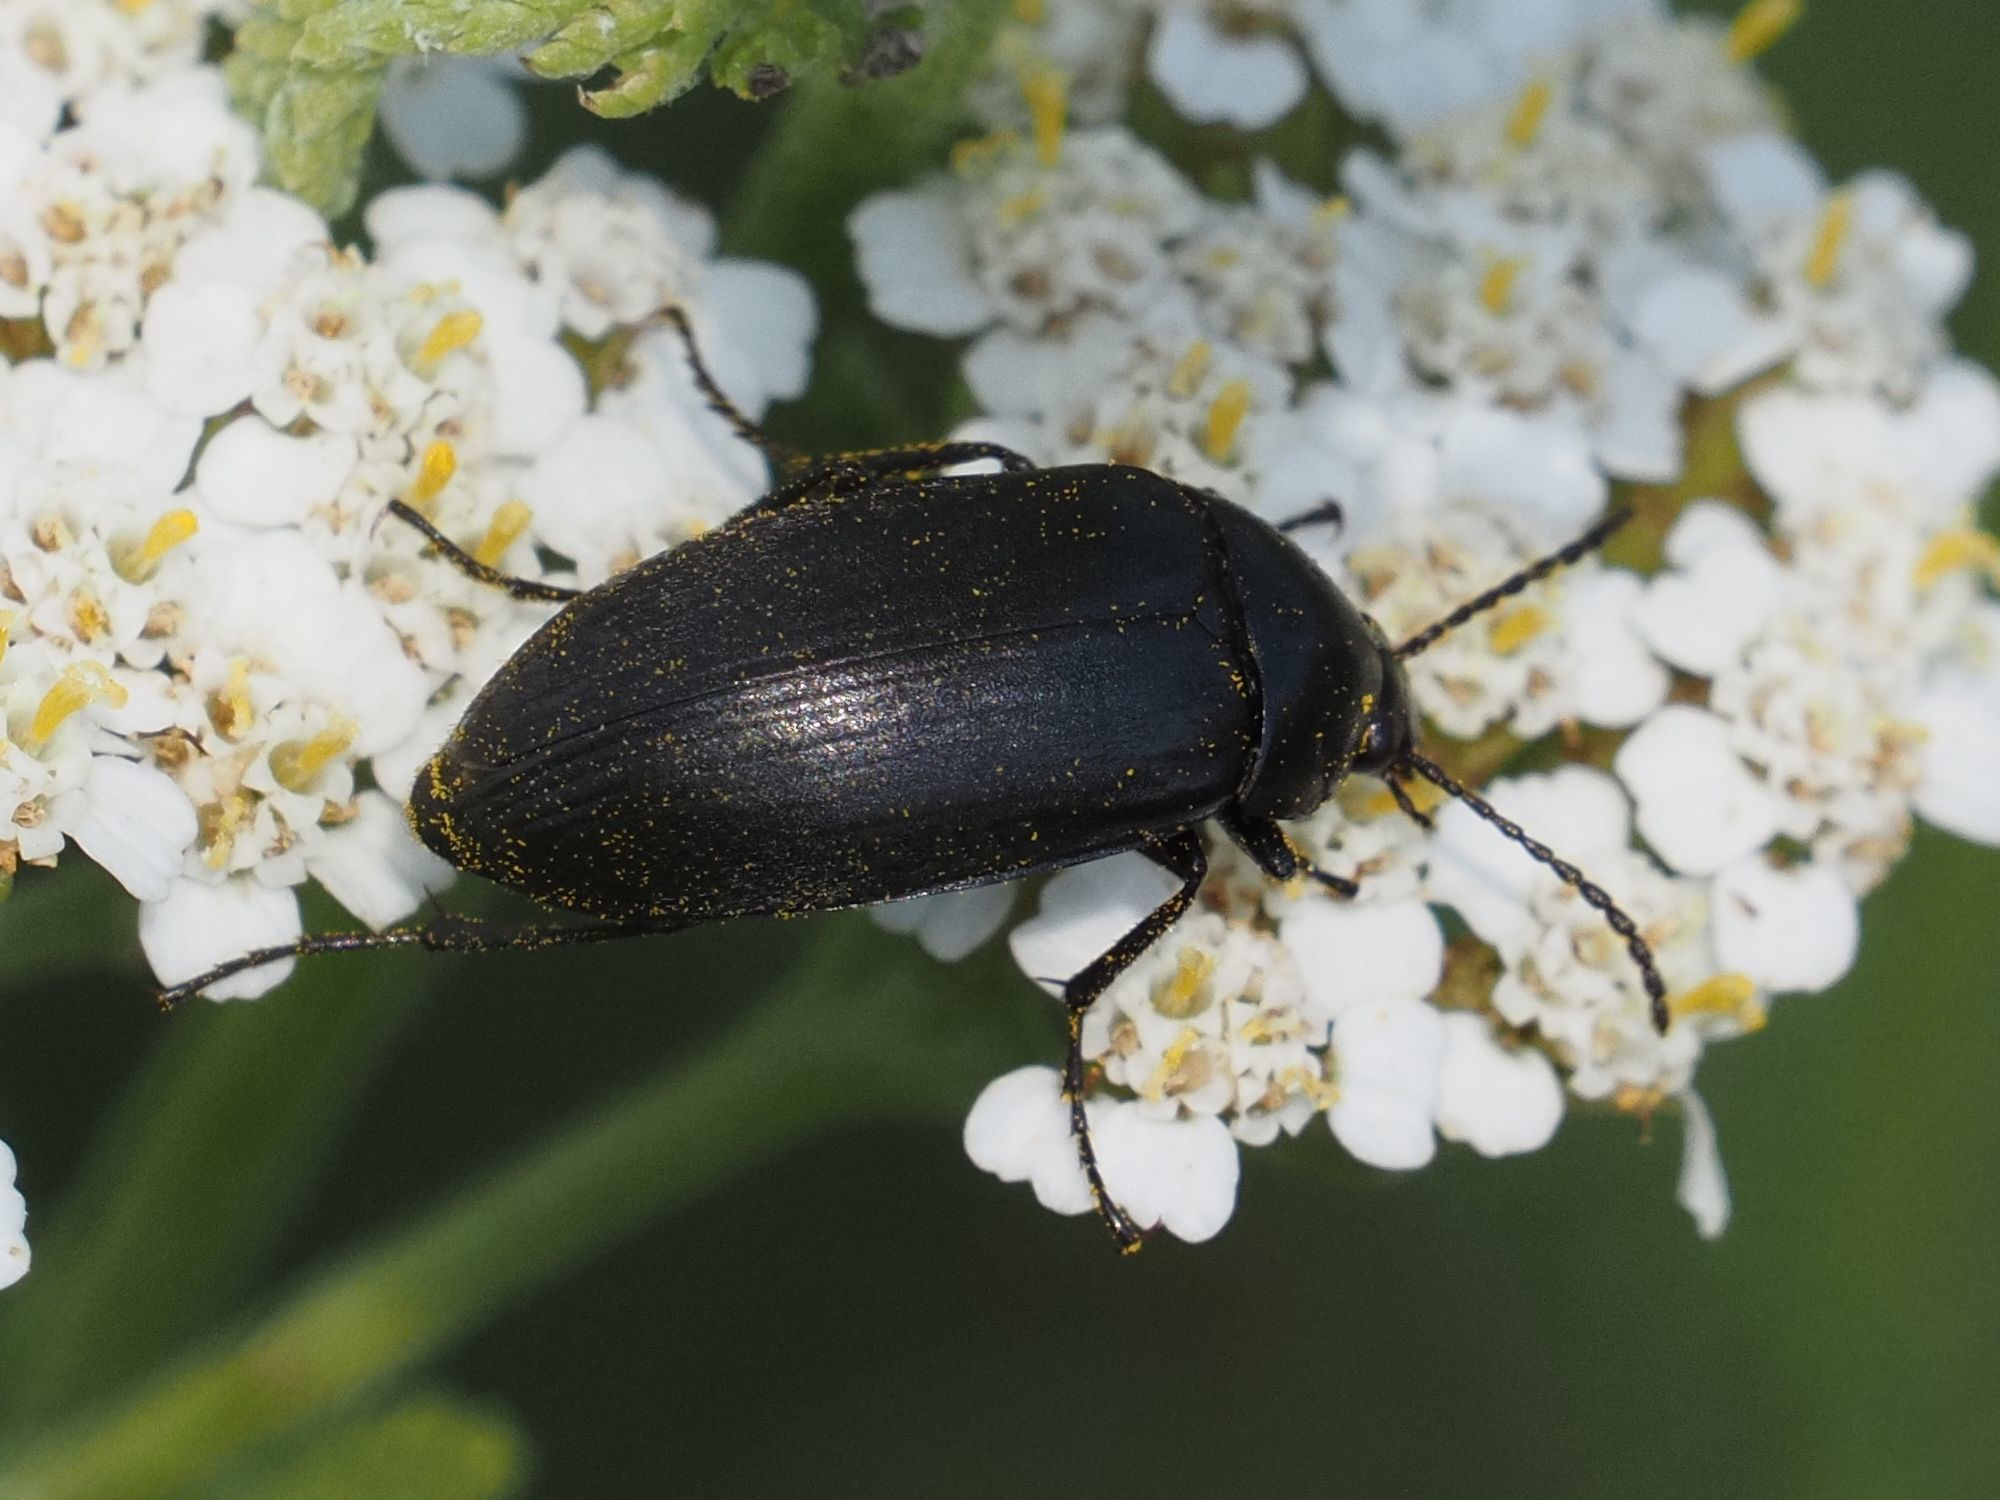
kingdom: Animalia
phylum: Arthropoda
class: Insecta
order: Coleoptera
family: Tenebrionidae
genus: Podonta
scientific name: Podonta nigrita
